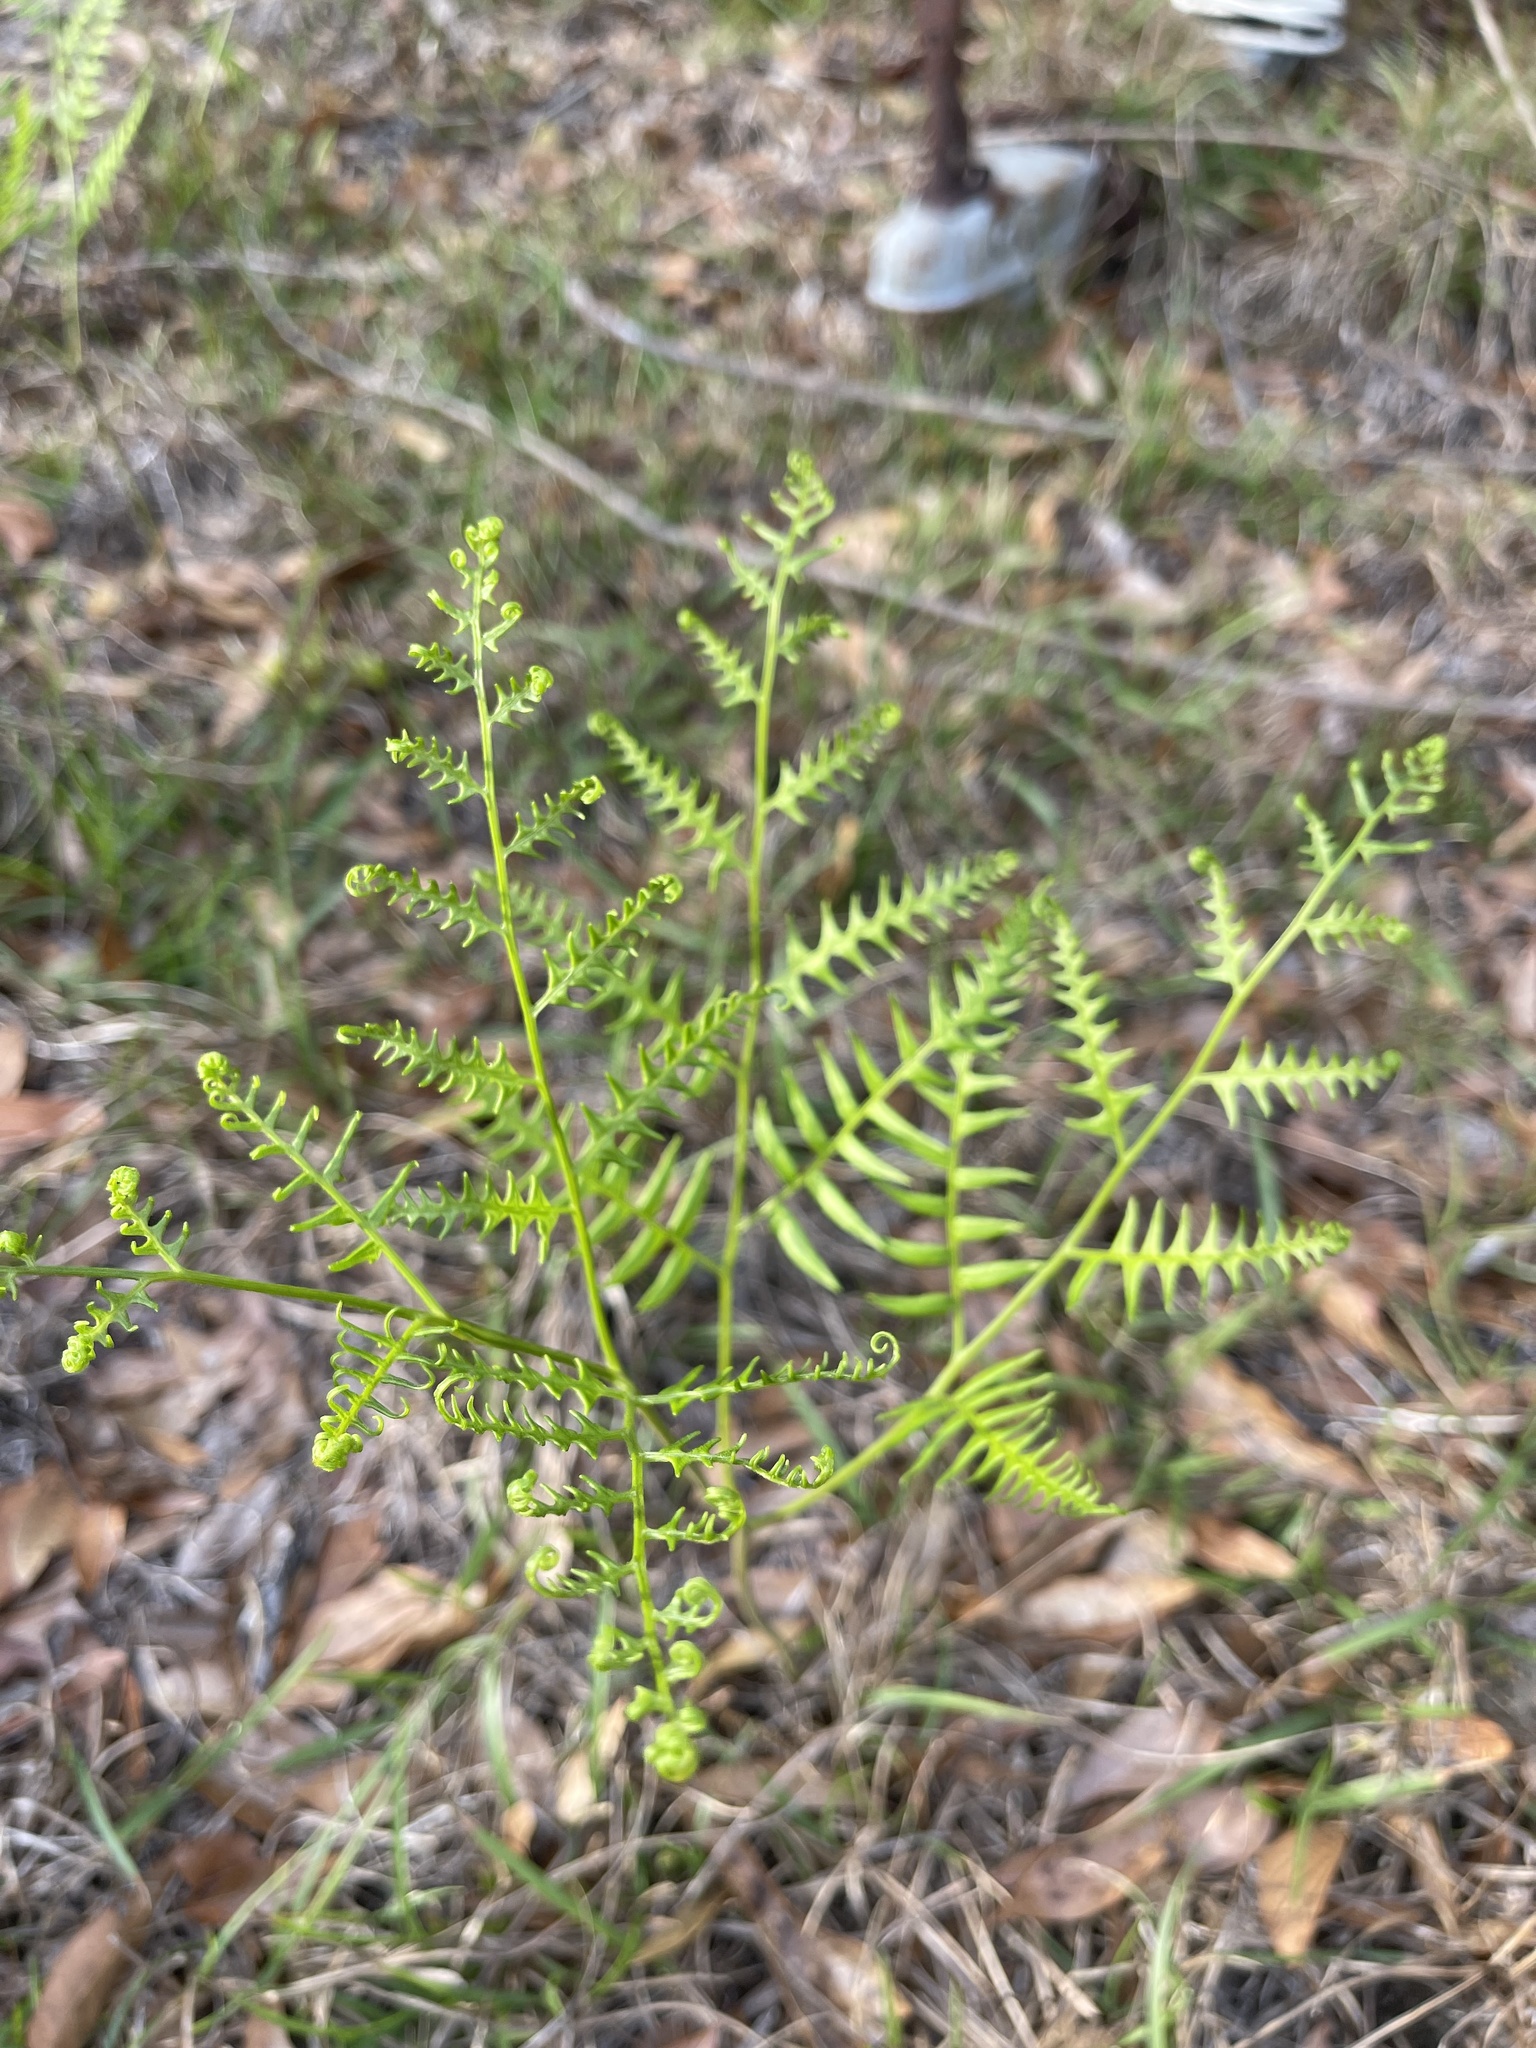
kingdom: Plantae
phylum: Tracheophyta
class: Polypodiopsida
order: Polypodiales
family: Dennstaedtiaceae
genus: Pteridium
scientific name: Pteridium aquilinum
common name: Bracken
